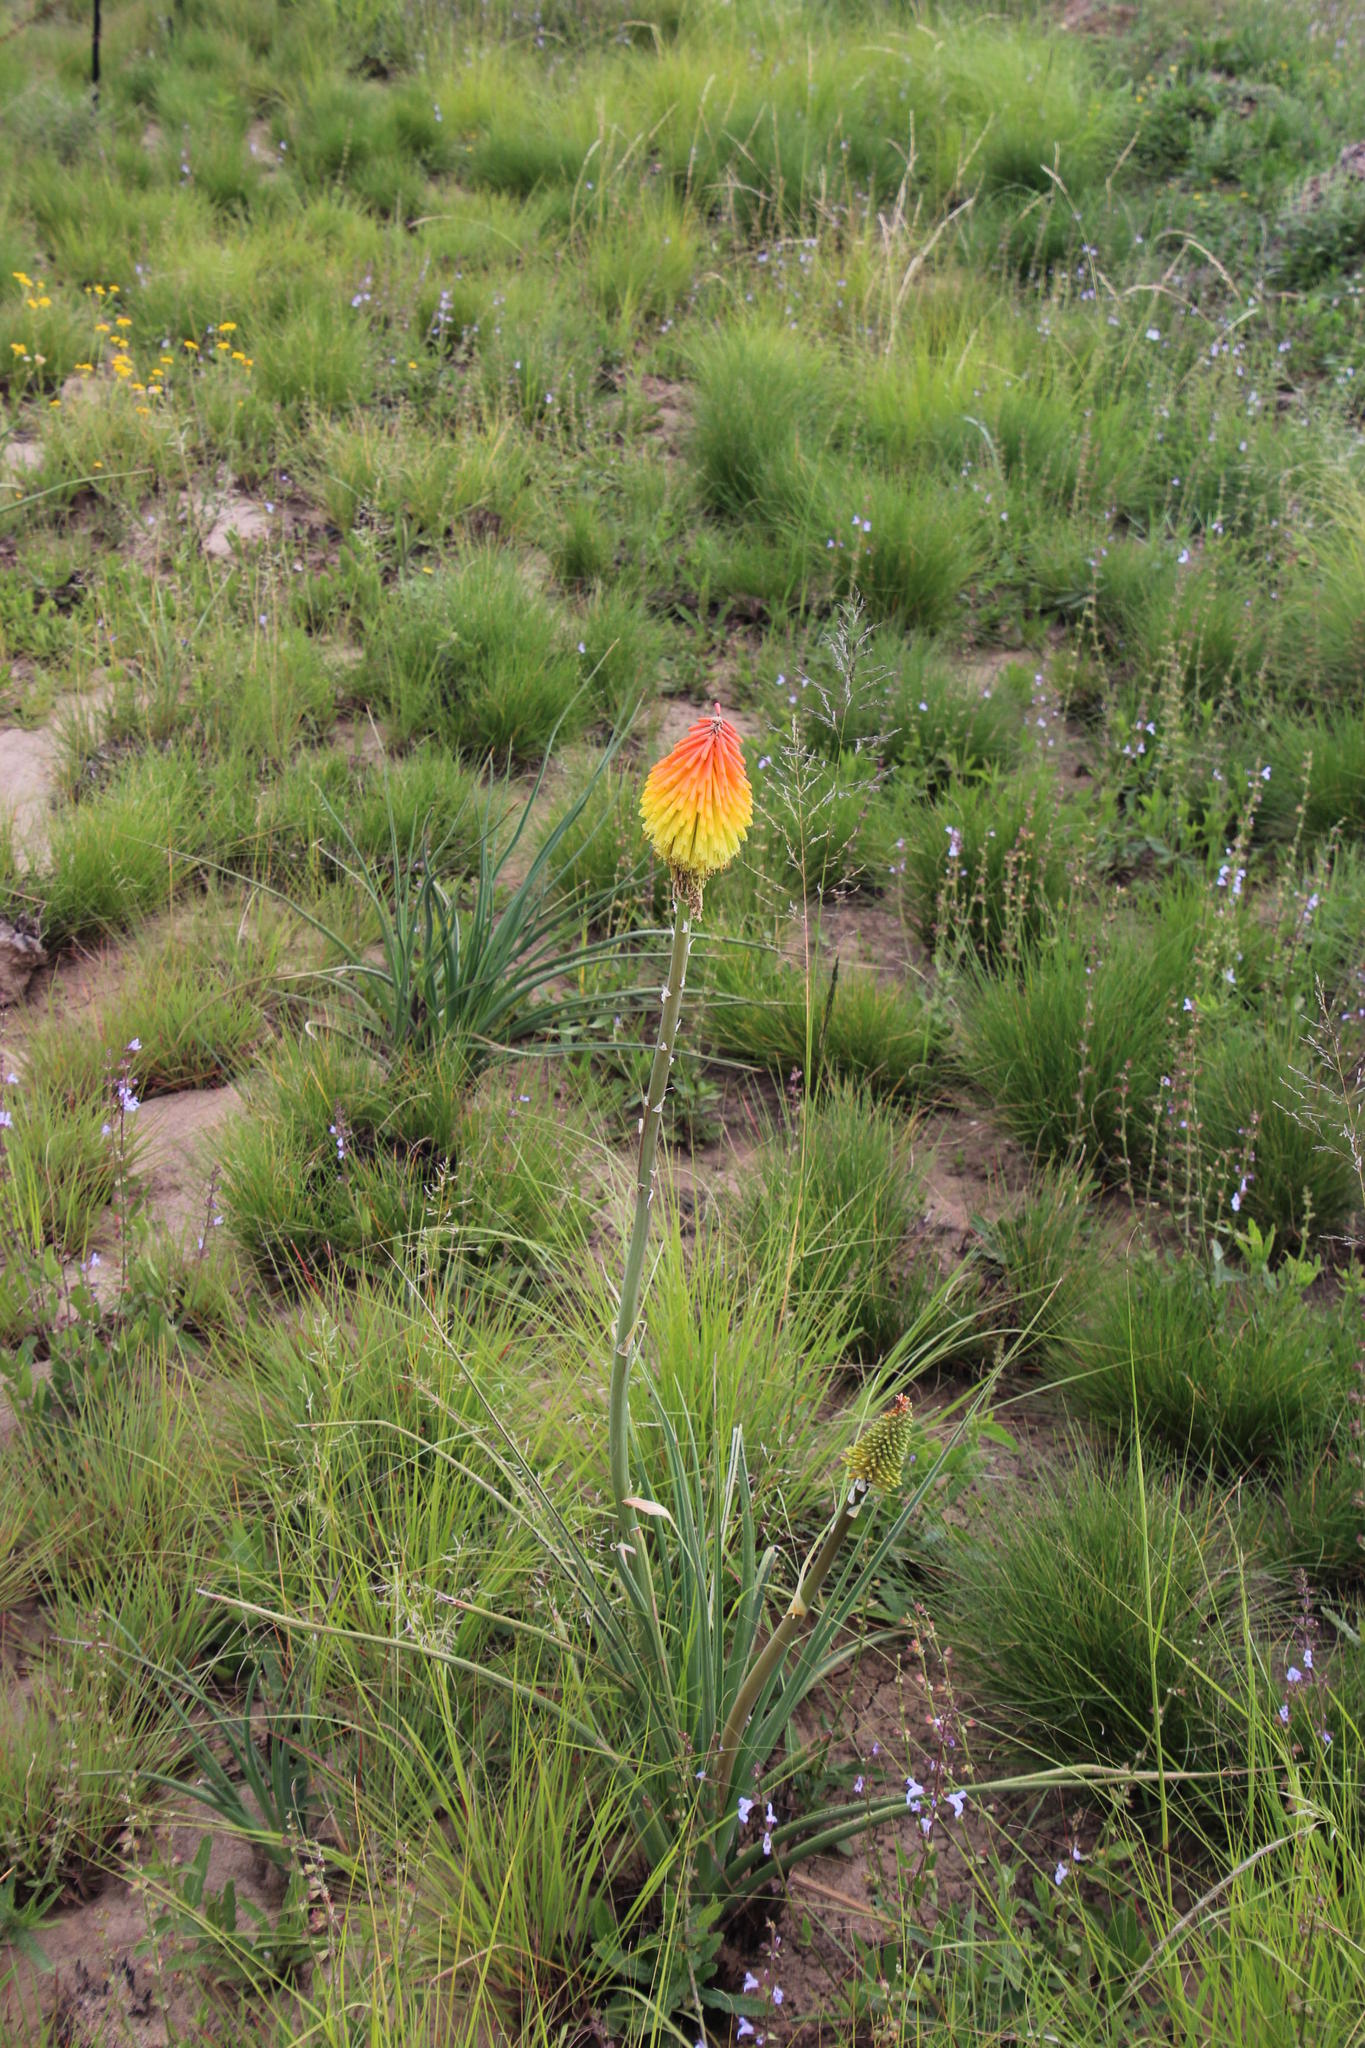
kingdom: Plantae
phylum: Tracheophyta
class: Liliopsida
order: Asparagales
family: Asphodelaceae
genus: Kniphofia
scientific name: Kniphofia stricta
